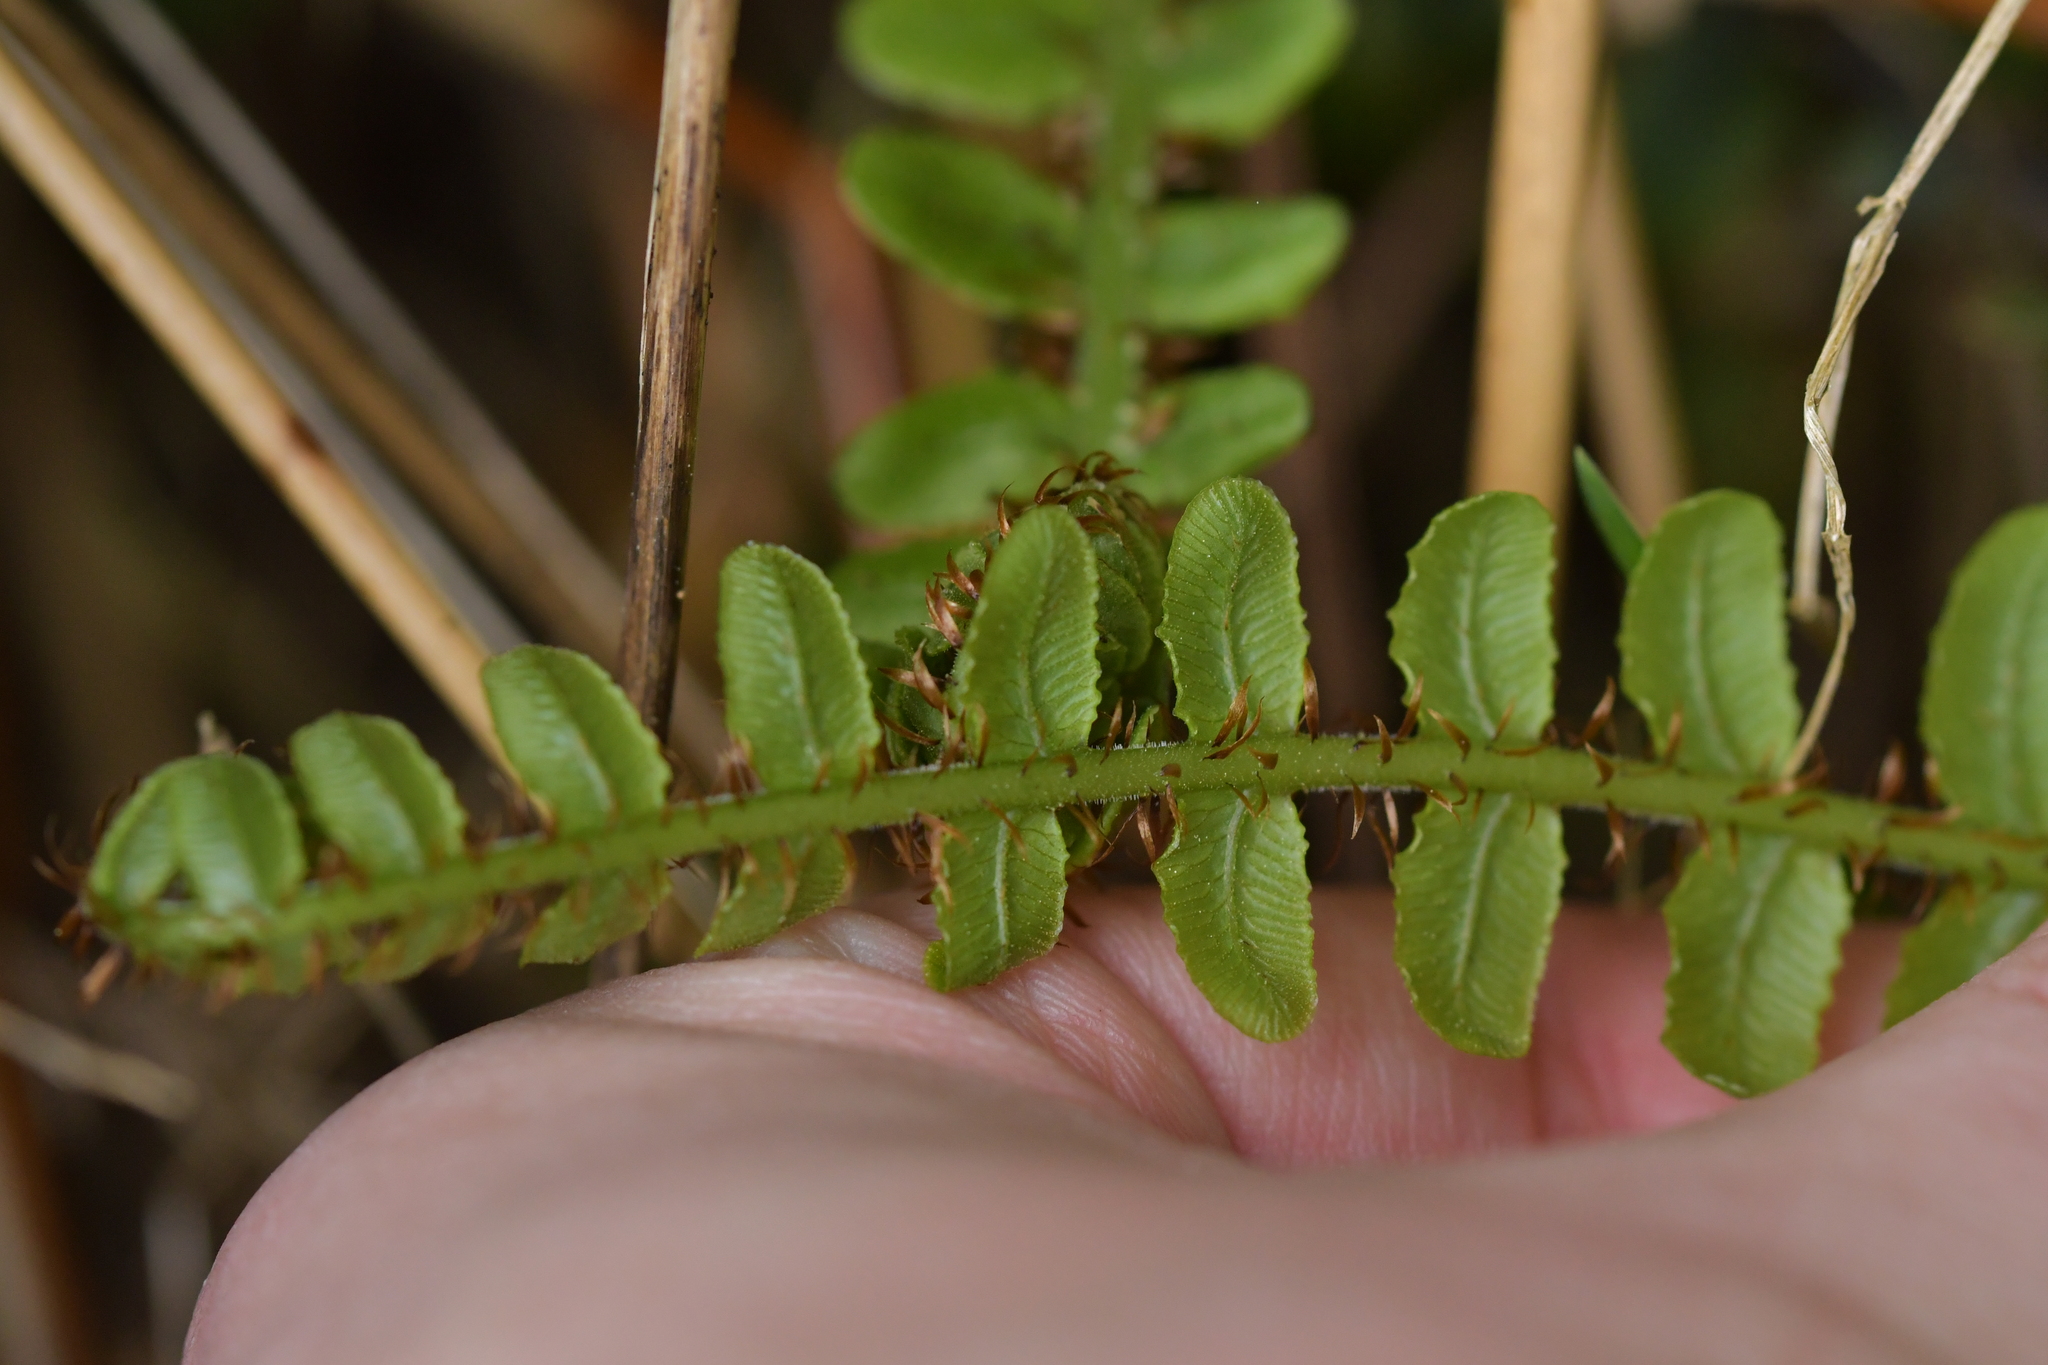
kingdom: Plantae
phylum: Tracheophyta
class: Polypodiopsida
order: Polypodiales
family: Blechnaceae
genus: Cranfillia
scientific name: Cranfillia fluviatilis
